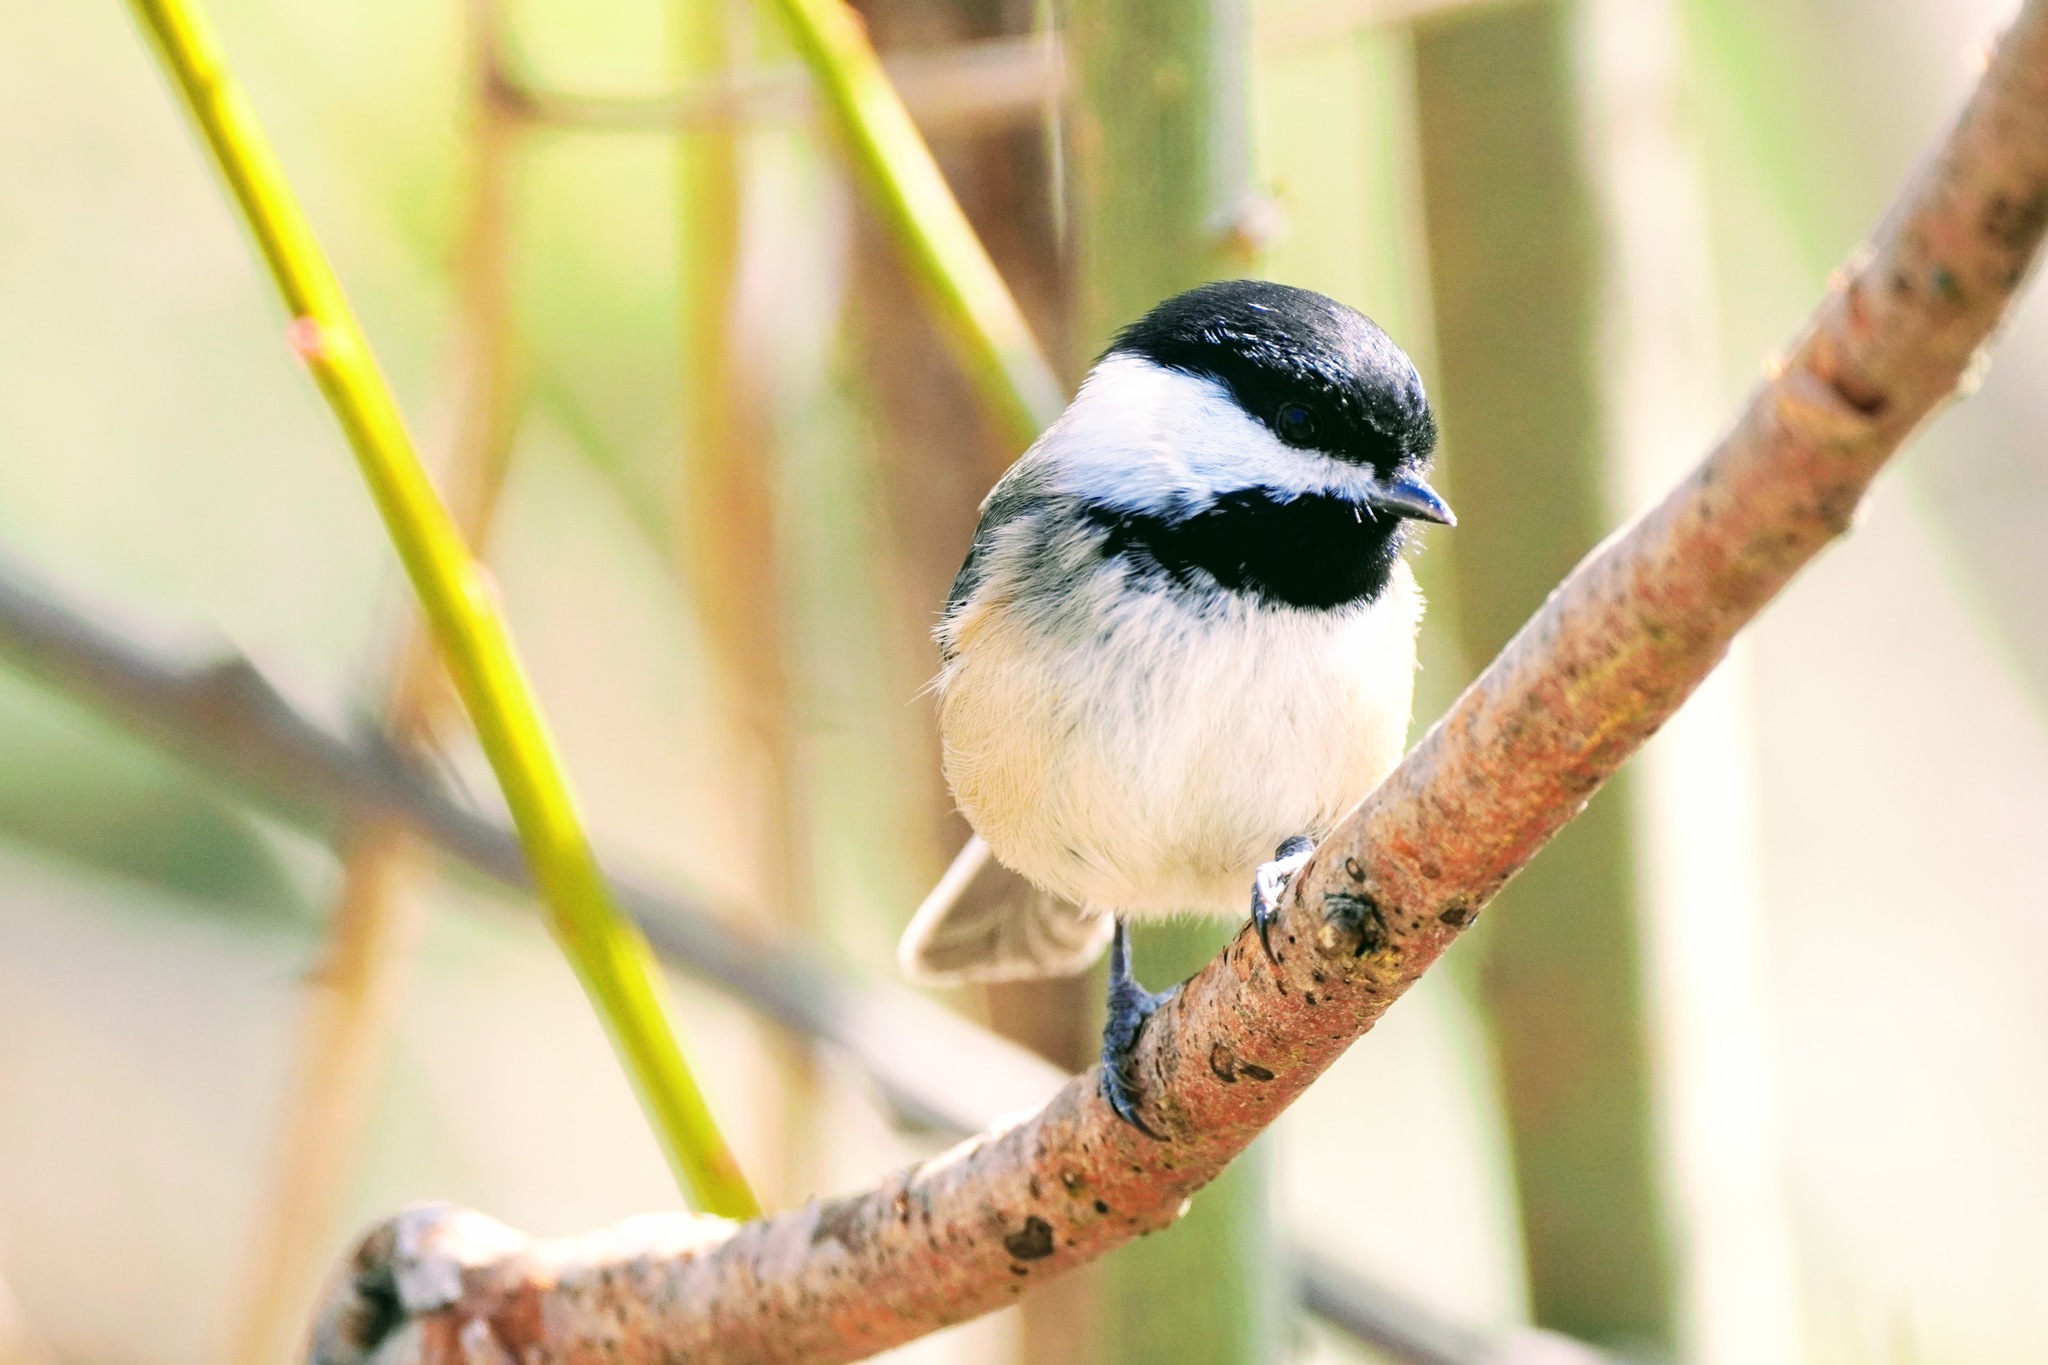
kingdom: Animalia
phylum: Chordata
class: Aves
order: Passeriformes
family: Paridae
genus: Poecile
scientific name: Poecile atricapillus
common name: Black-capped chickadee
